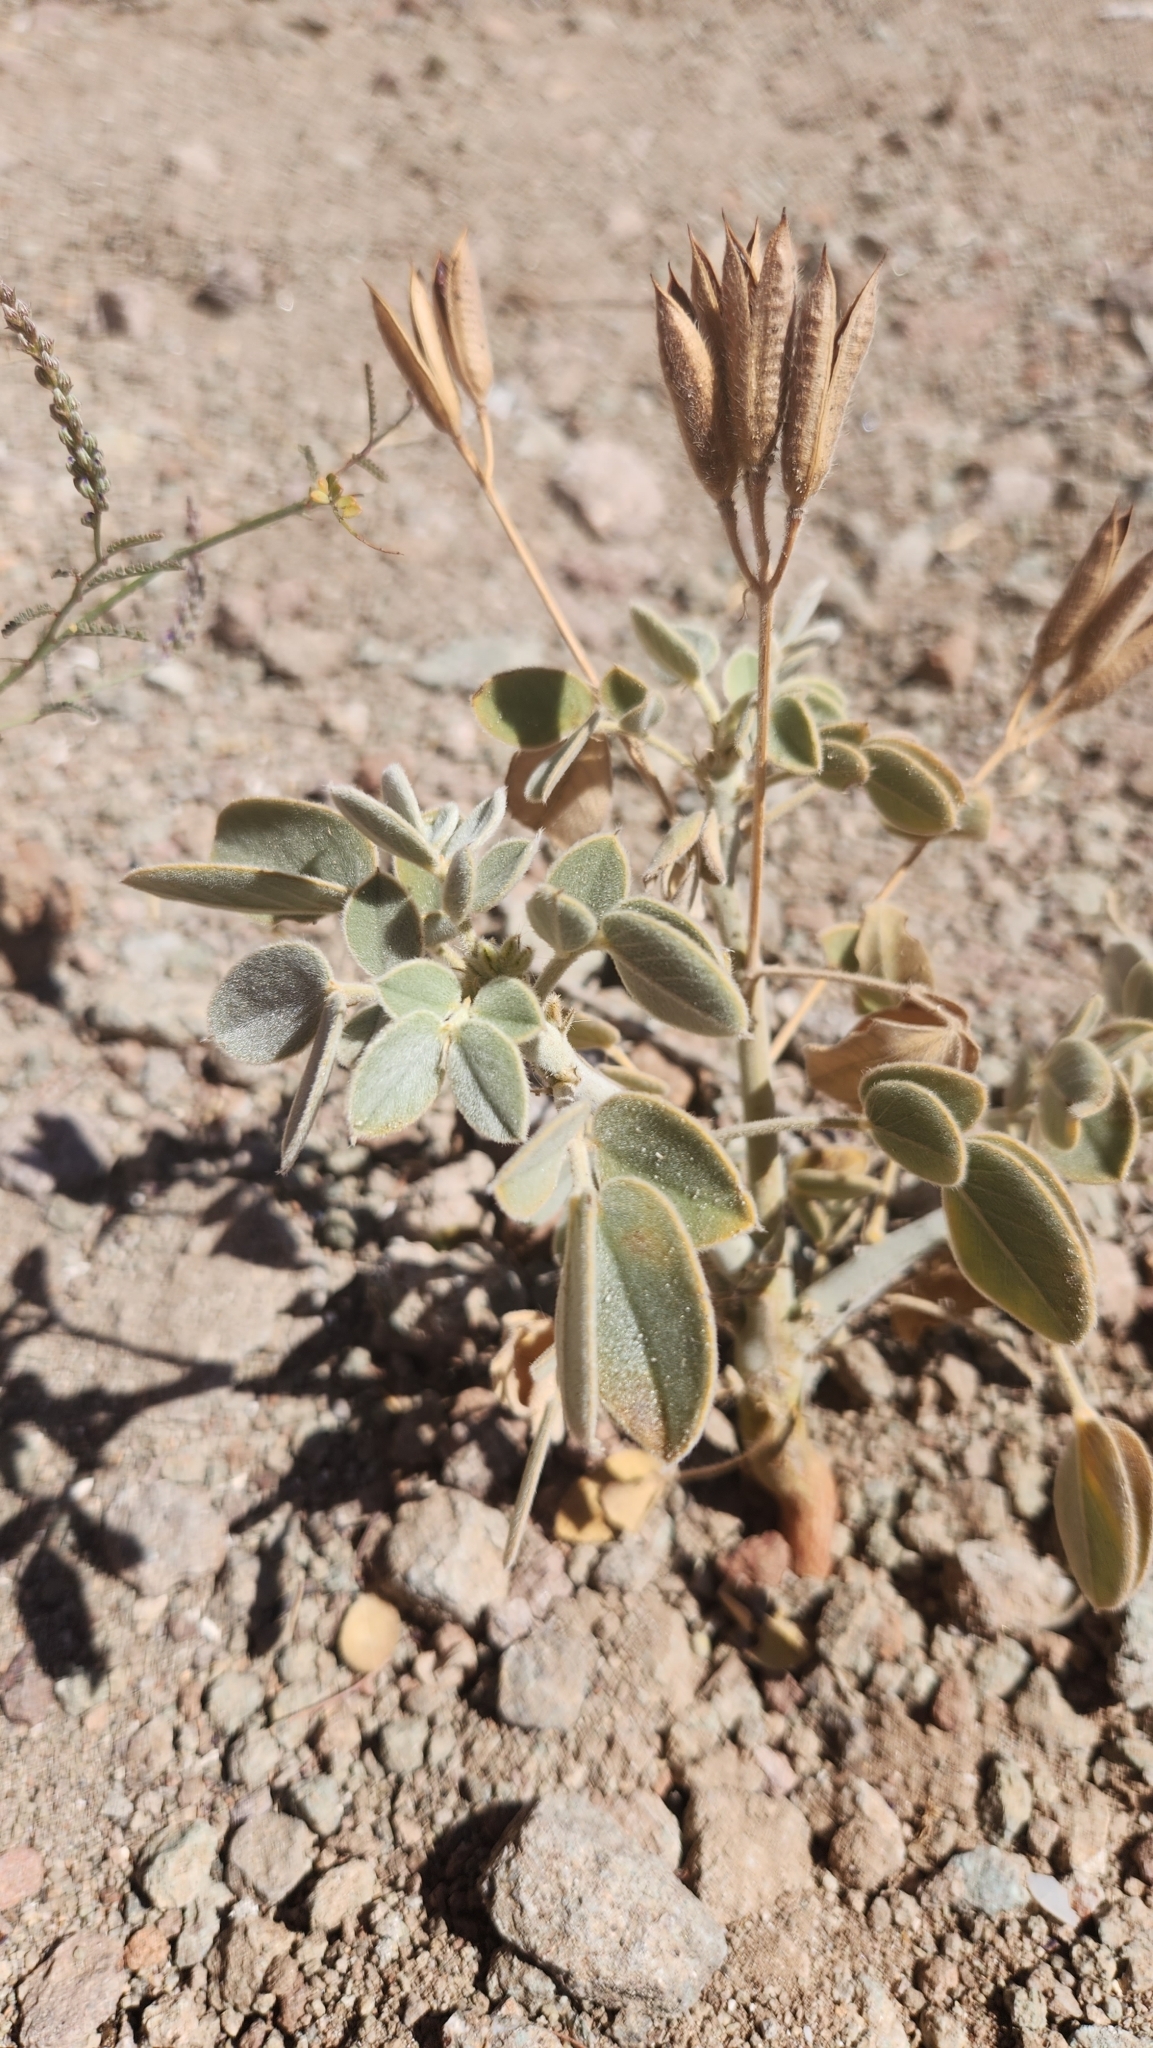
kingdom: Plantae
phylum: Tracheophyta
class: Magnoliopsida
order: Fabales
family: Fabaceae
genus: Senna
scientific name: Senna confinis
